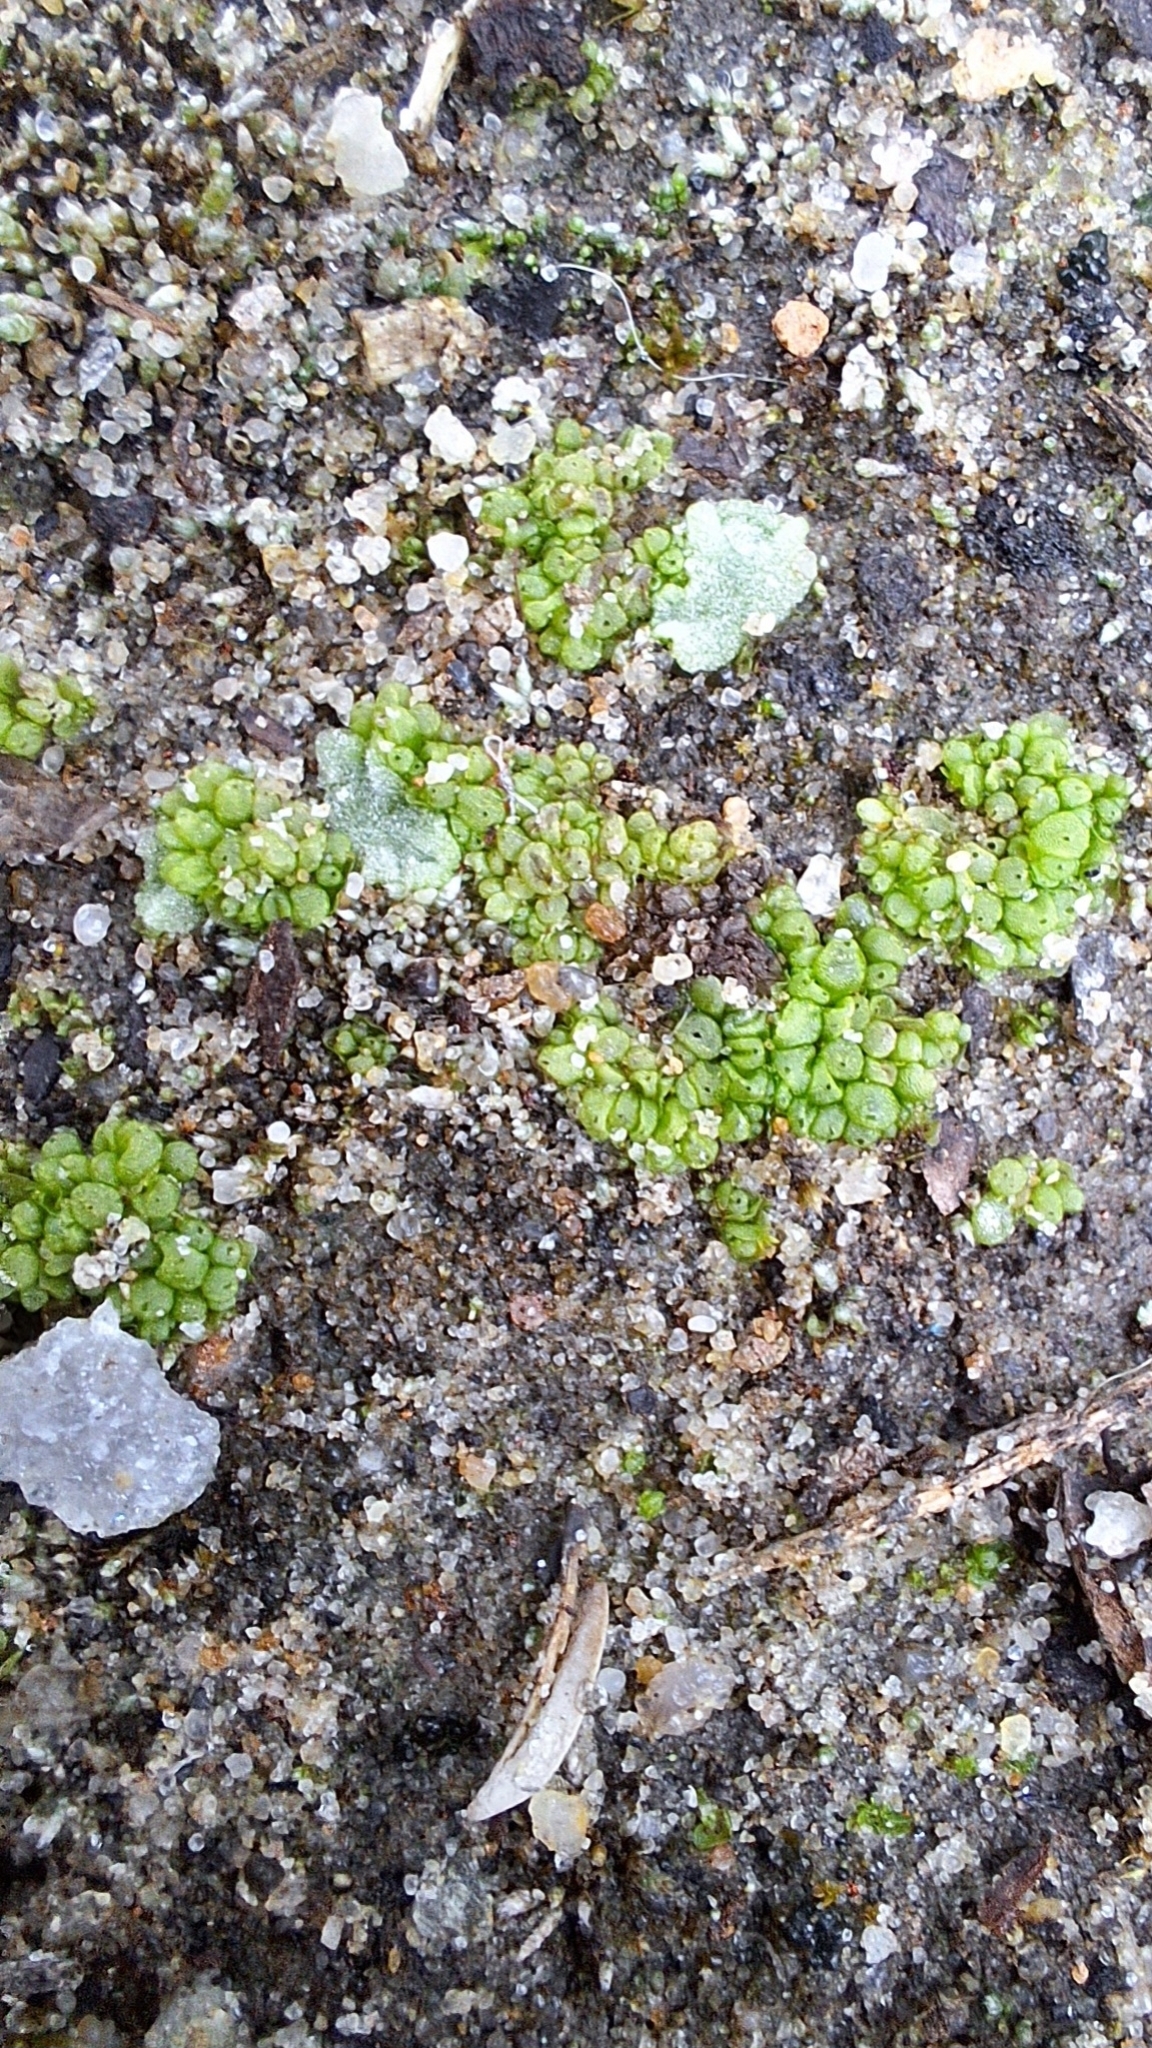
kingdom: Plantae
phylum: Marchantiophyta
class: Marchantiopsida
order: Sphaerocarpales
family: Sphaerocarpaceae
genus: Sphaerocarpos
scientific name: Sphaerocarpos texanus
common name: Texas balloonwort
